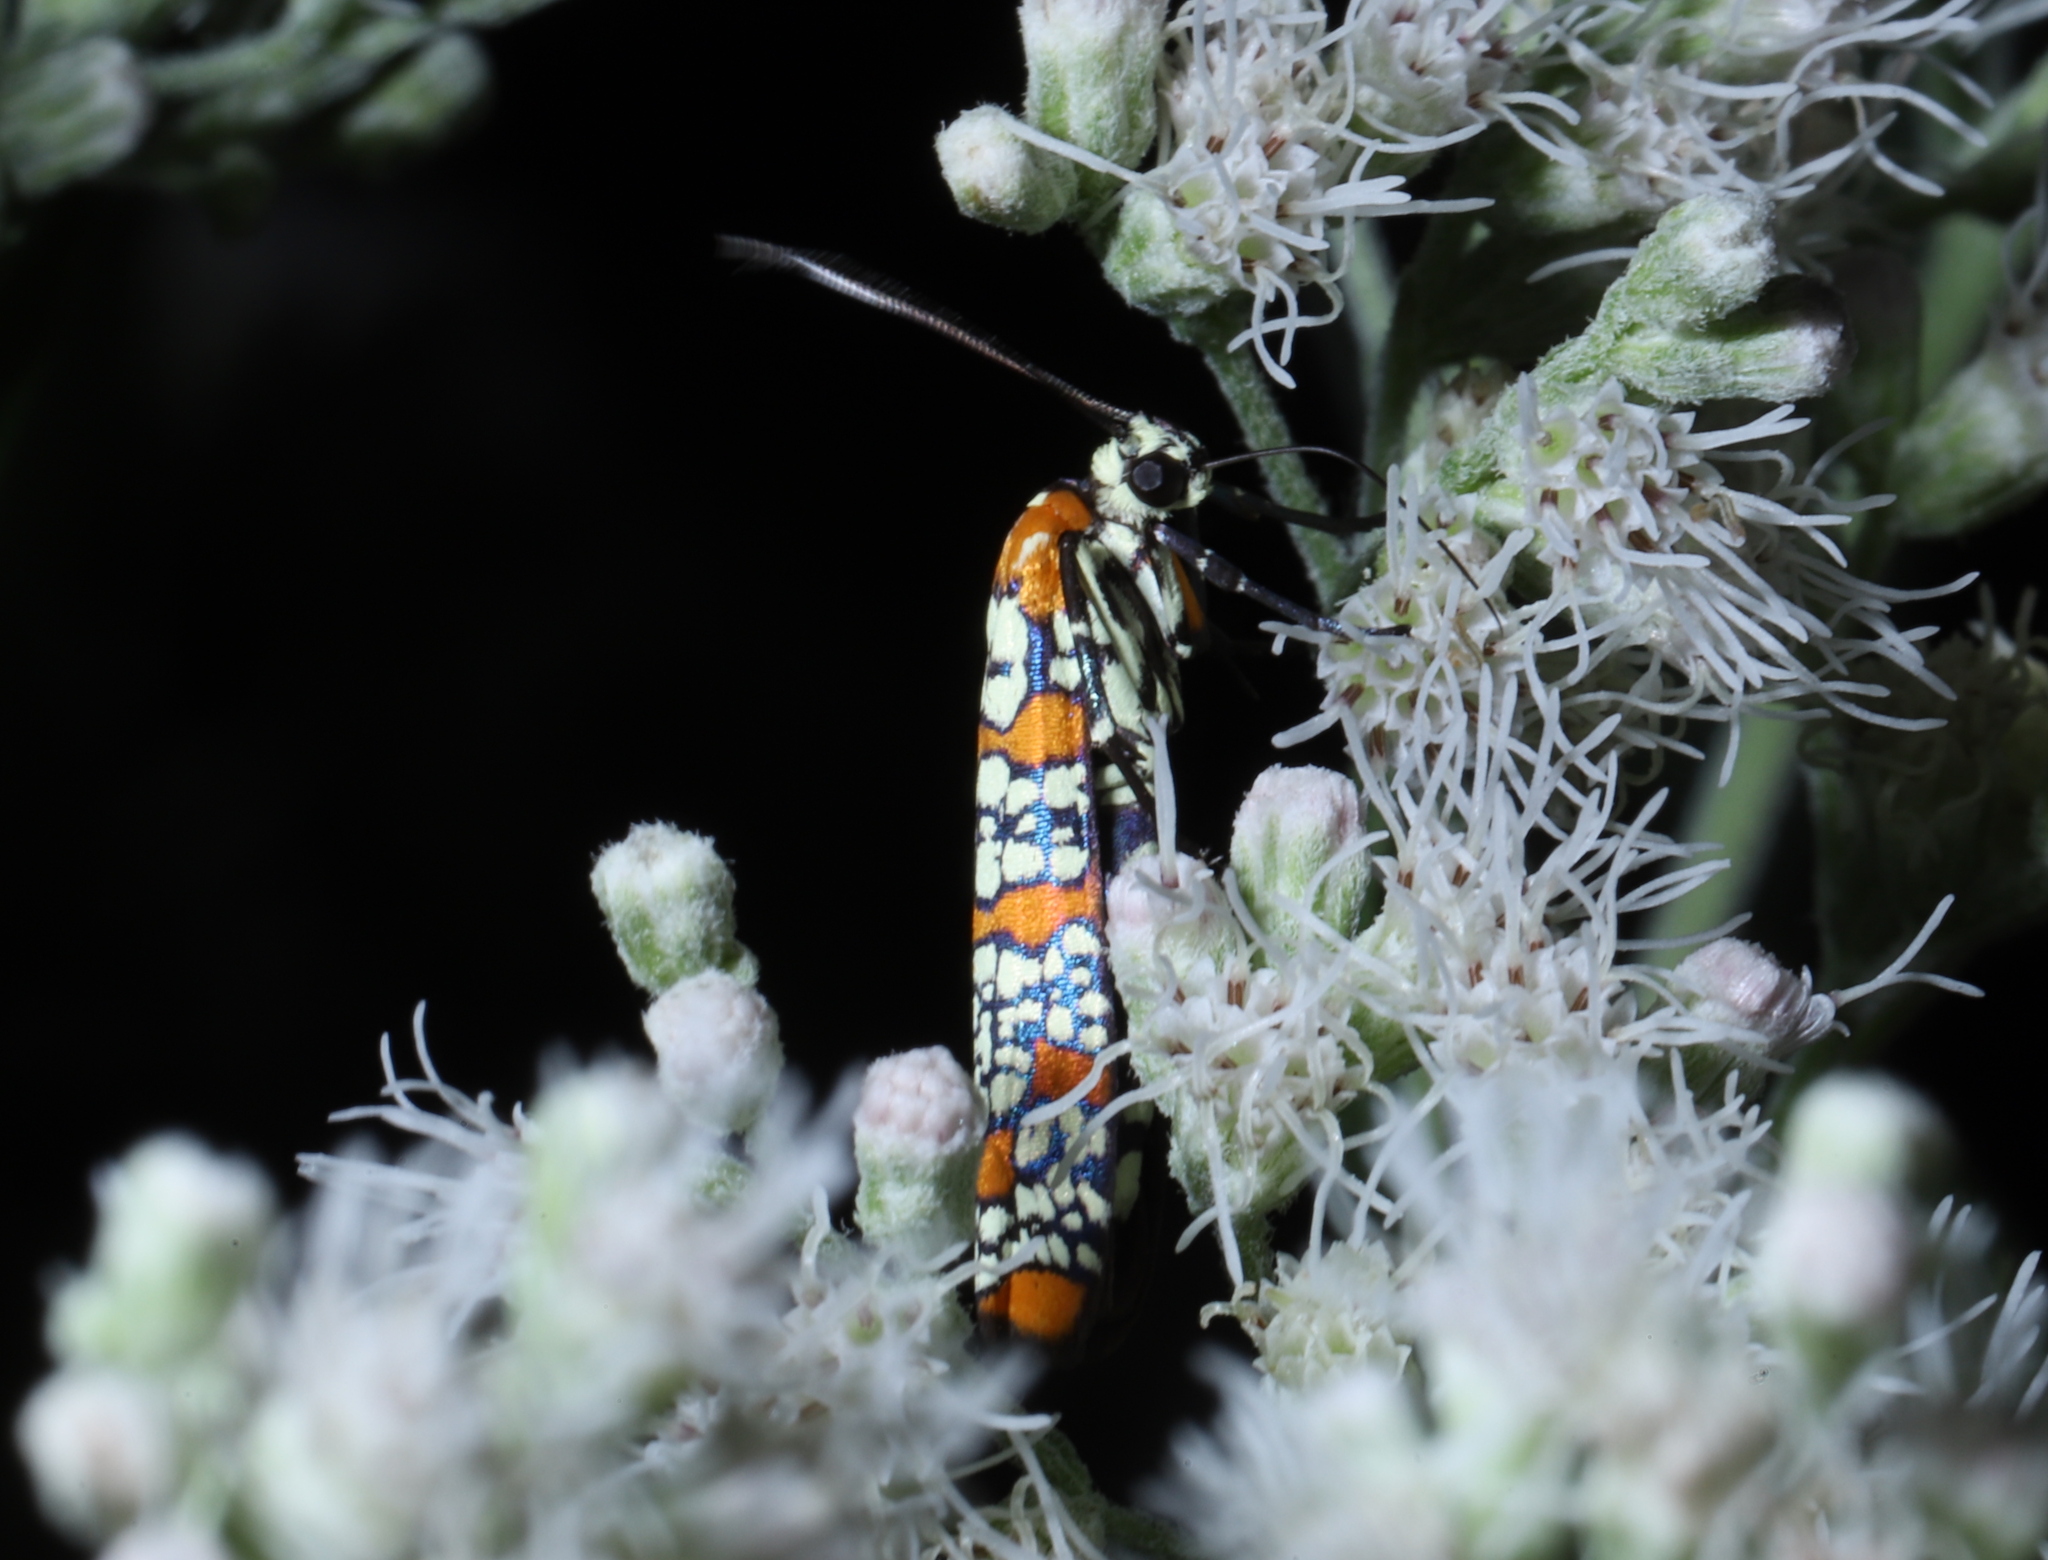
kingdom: Animalia
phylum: Arthropoda
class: Insecta
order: Lepidoptera
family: Attevidae
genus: Atteva
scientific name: Atteva punctella
